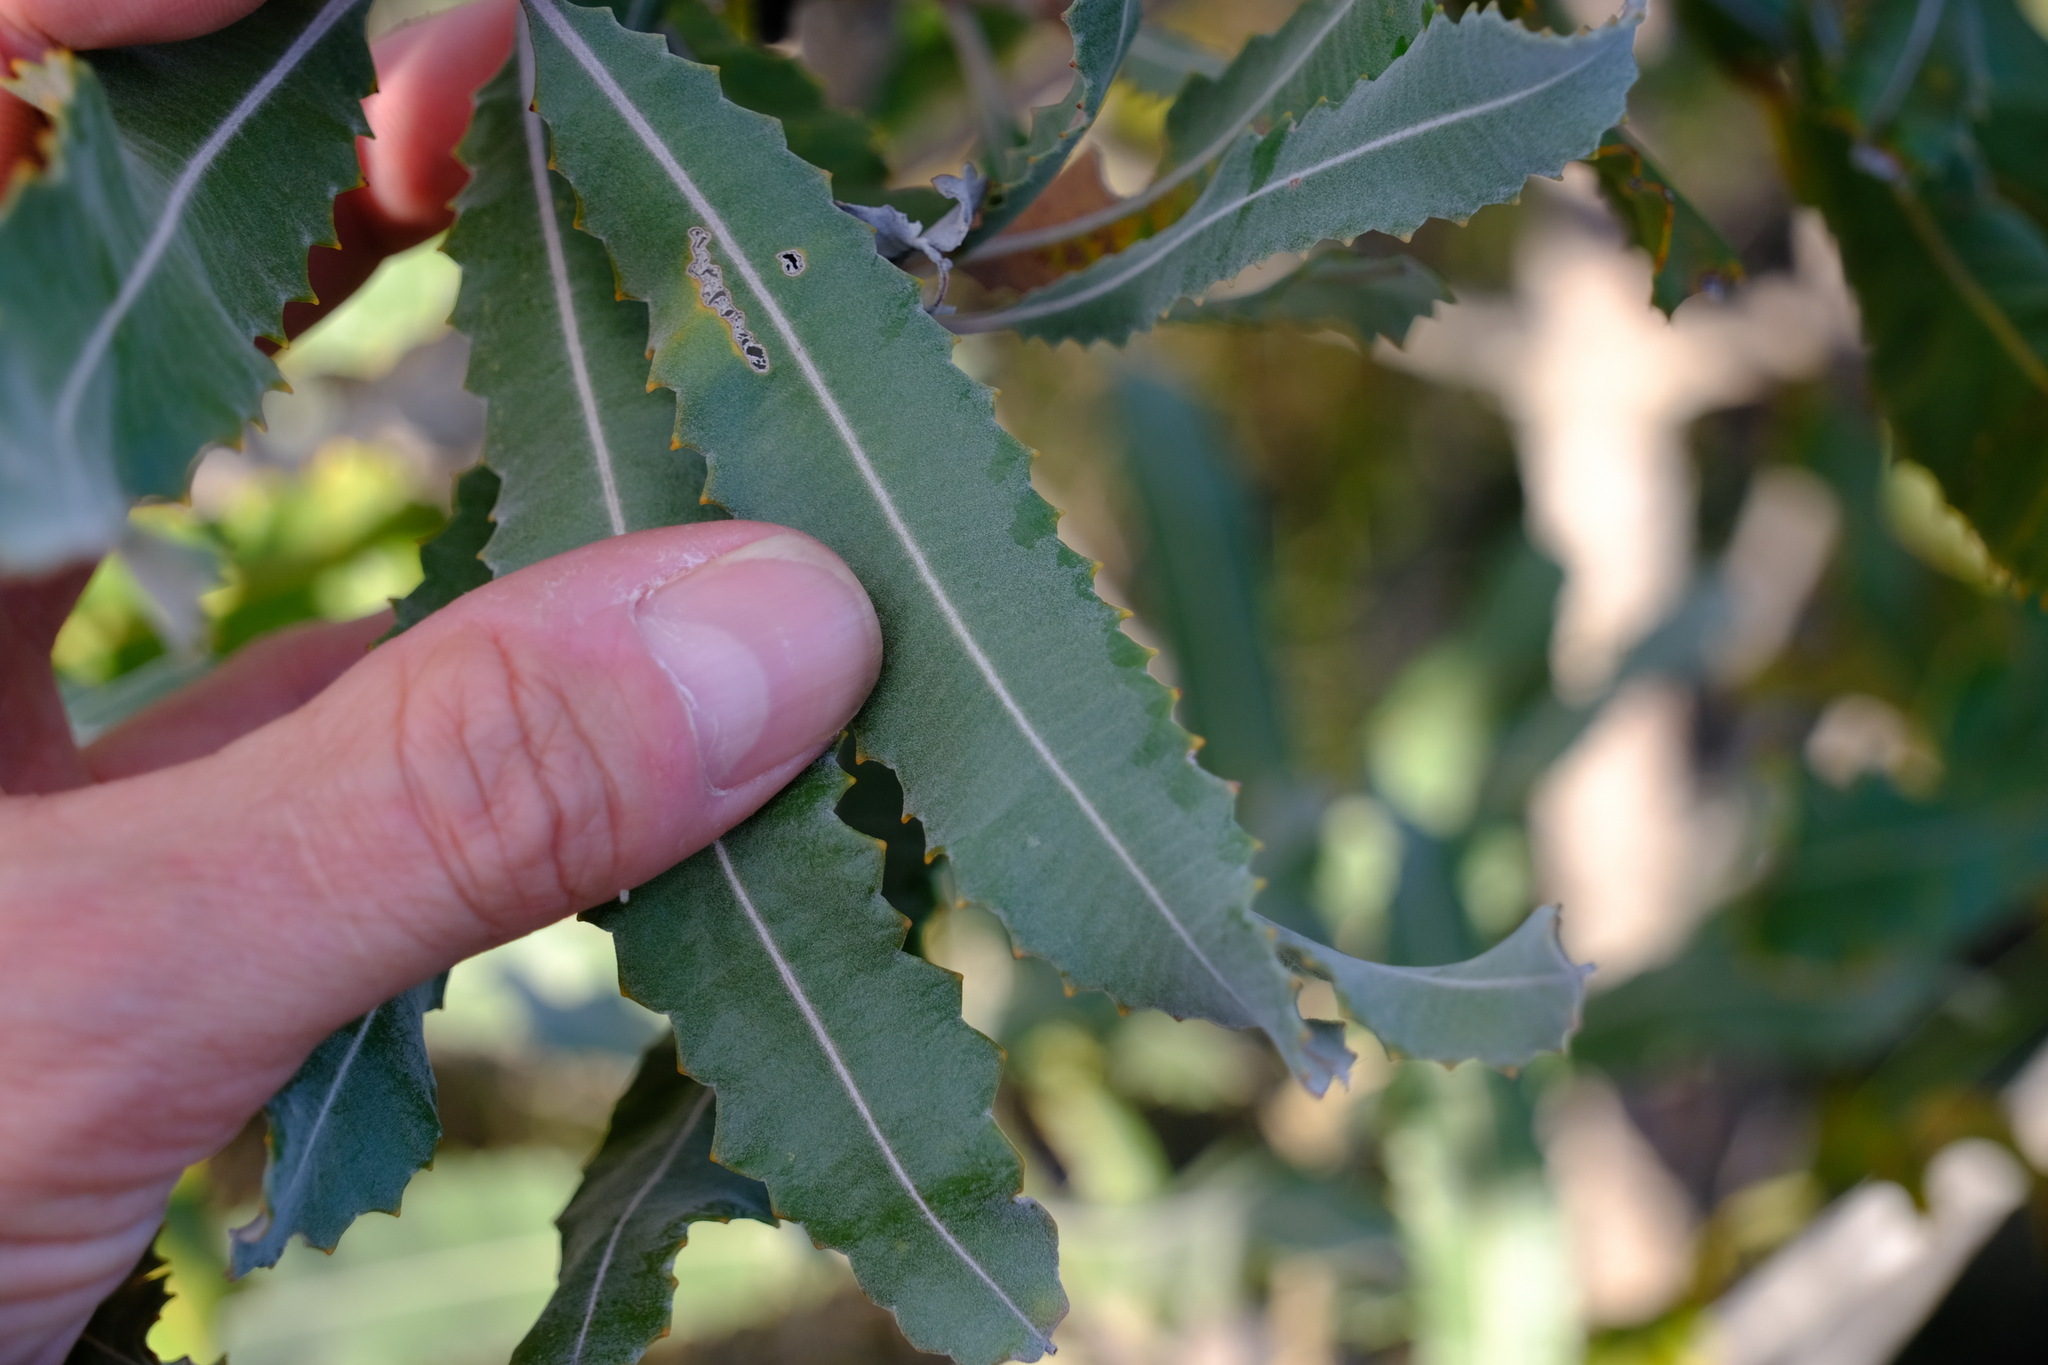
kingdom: Plantae
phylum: Tracheophyta
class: Magnoliopsida
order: Proteales
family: Proteaceae
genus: Banksia
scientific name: Banksia menziesii
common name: Menzie's banksia
